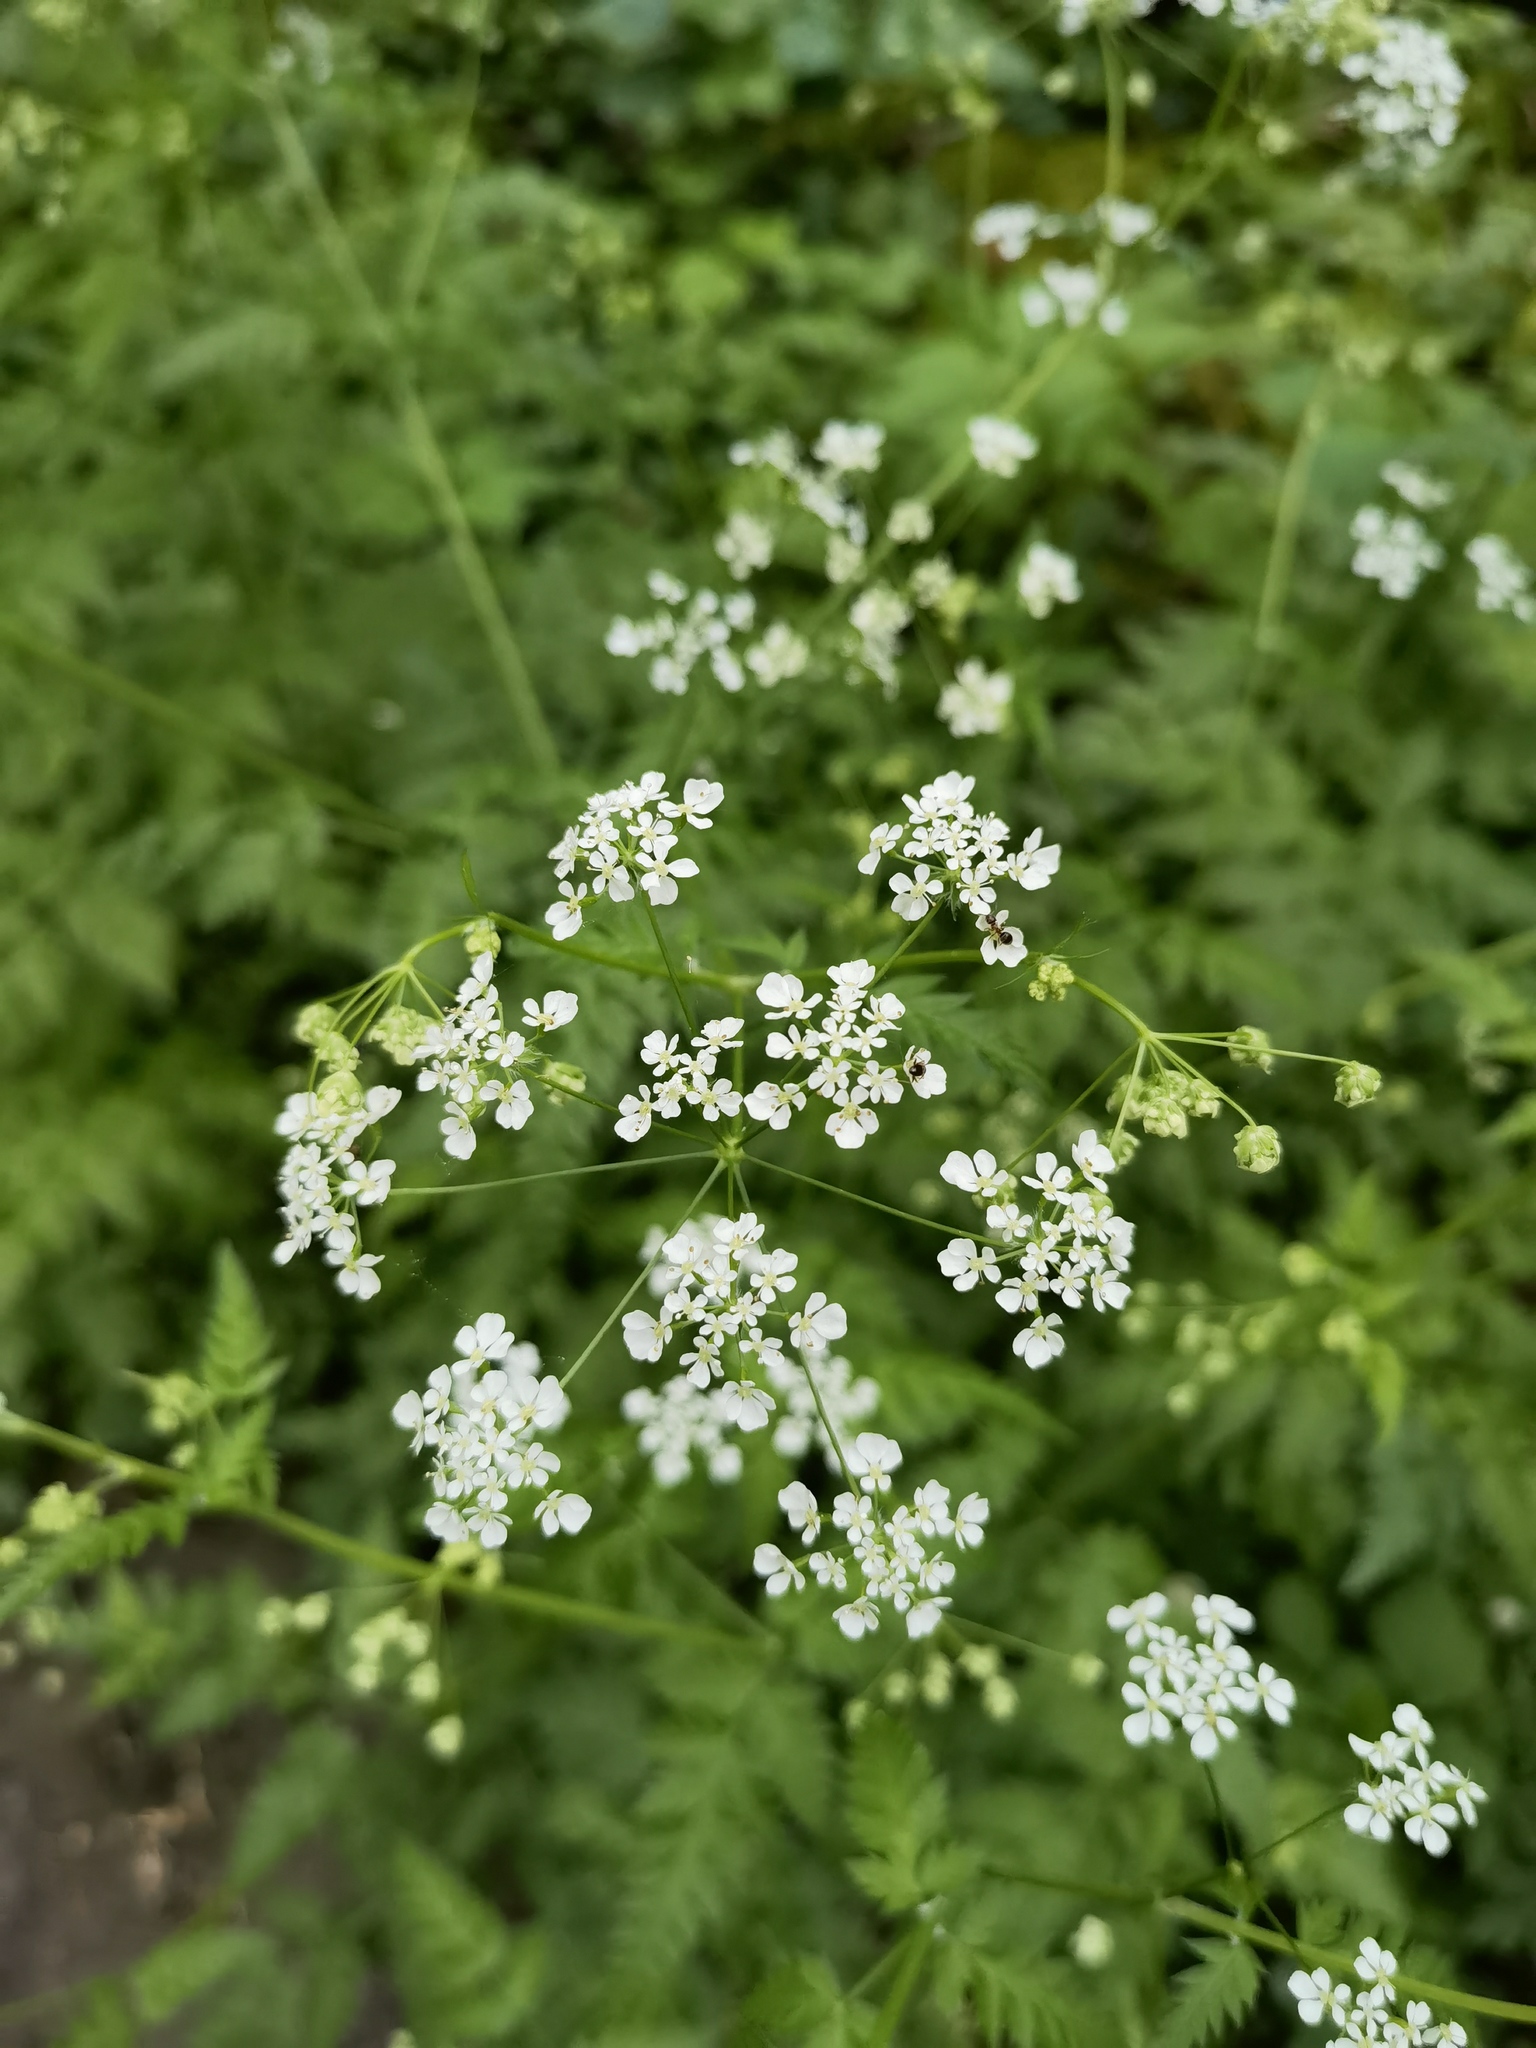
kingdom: Plantae
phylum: Tracheophyta
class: Magnoliopsida
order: Apiales
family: Apiaceae
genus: Anthriscus
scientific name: Anthriscus sylvestris
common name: Cow parsley
